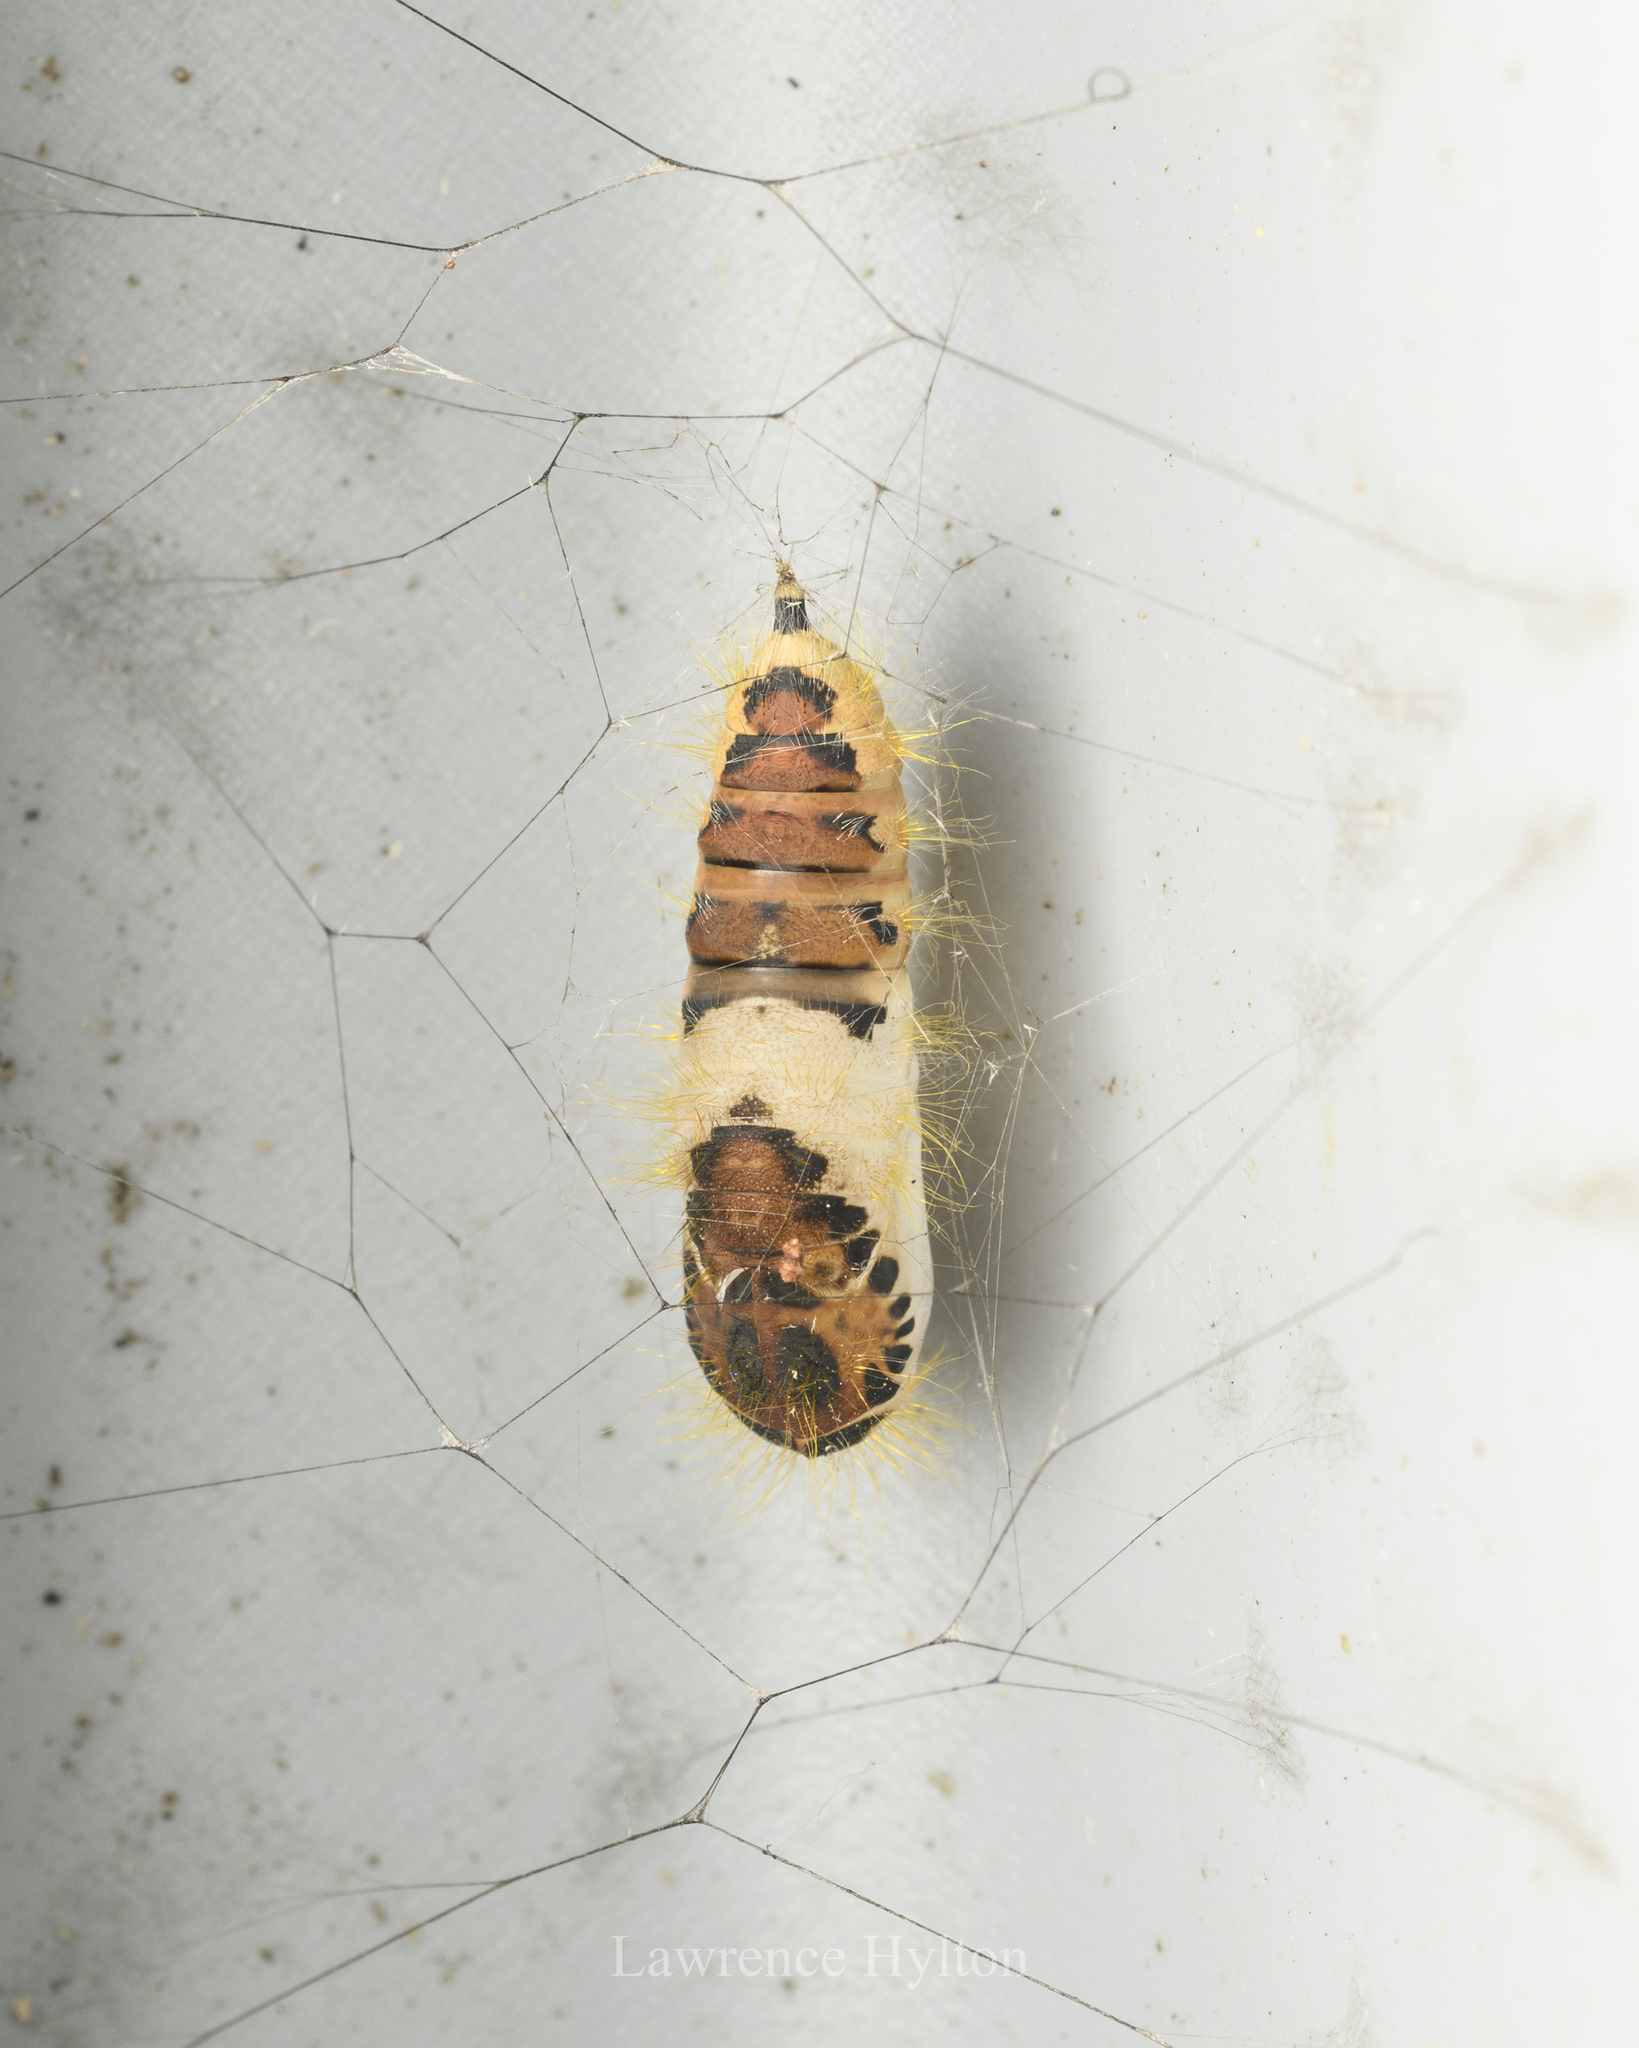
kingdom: Animalia
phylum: Arthropoda
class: Insecta
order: Lepidoptera
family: Erebidae
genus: Perina
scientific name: Perina nuda
